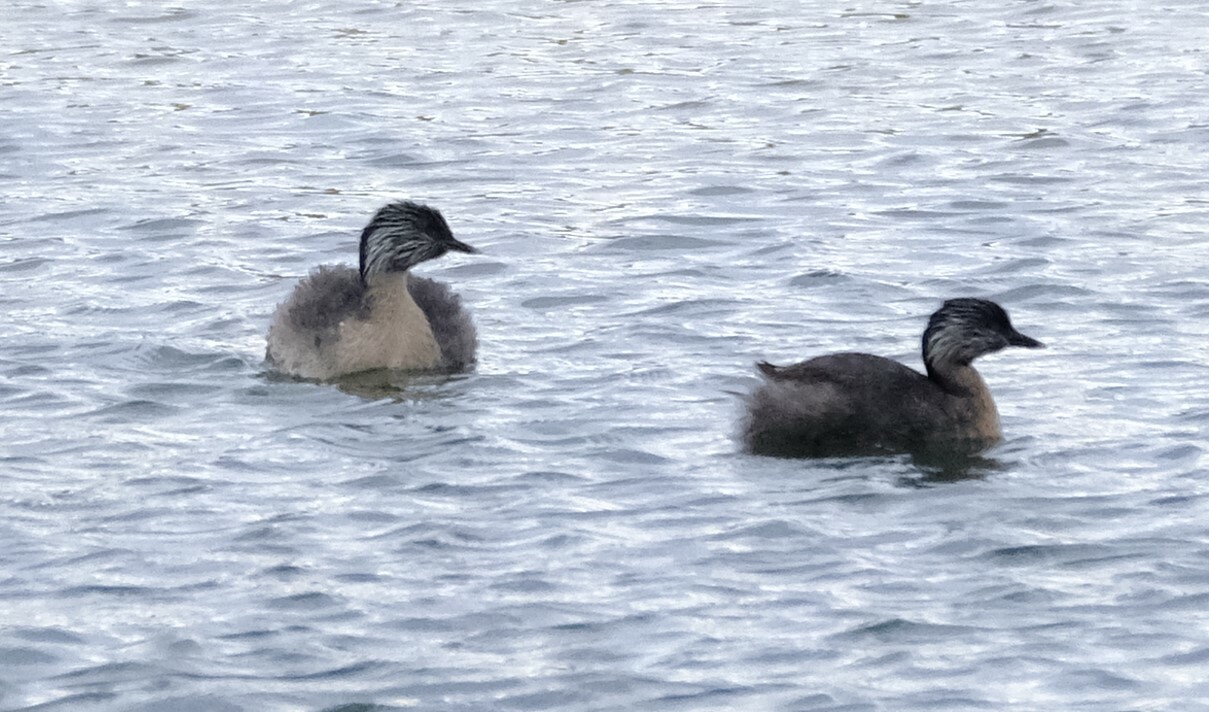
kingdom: Animalia
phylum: Chordata
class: Aves
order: Podicipediformes
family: Podicipedidae
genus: Poliocephalus
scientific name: Poliocephalus poliocephalus
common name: Hoary-headed grebe
